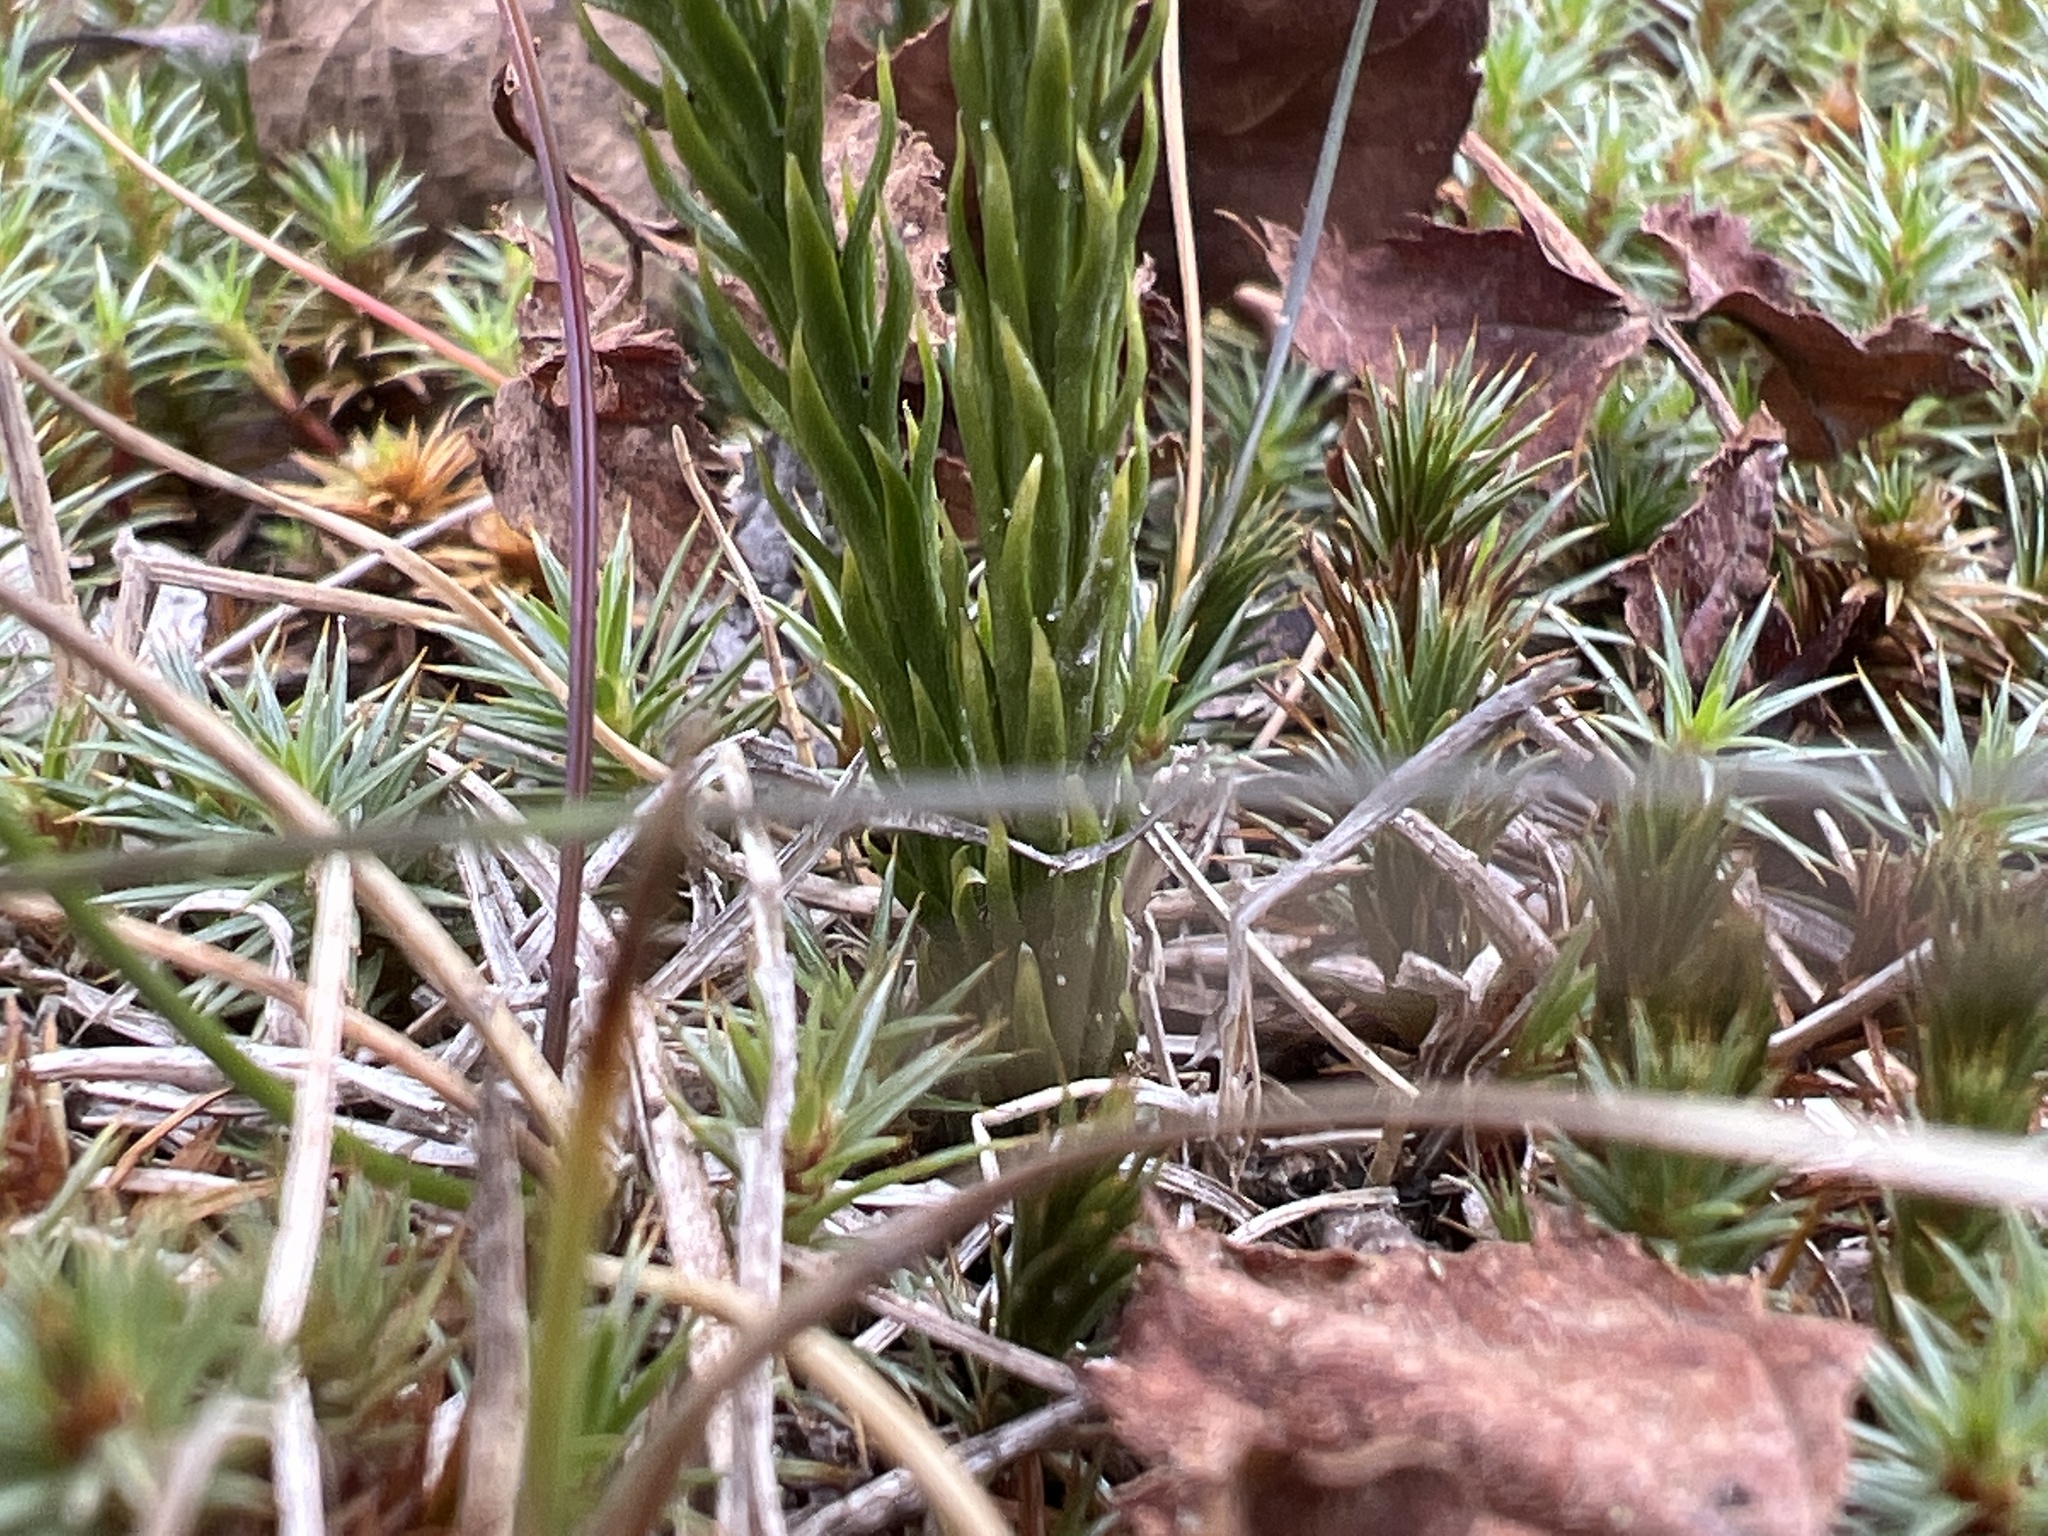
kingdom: Plantae
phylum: Tracheophyta
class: Lycopodiopsida
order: Lycopodiales
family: Lycopodiaceae
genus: Dendrolycopodium
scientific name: Dendrolycopodium hickeyi
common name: Hickey's clubmoss
